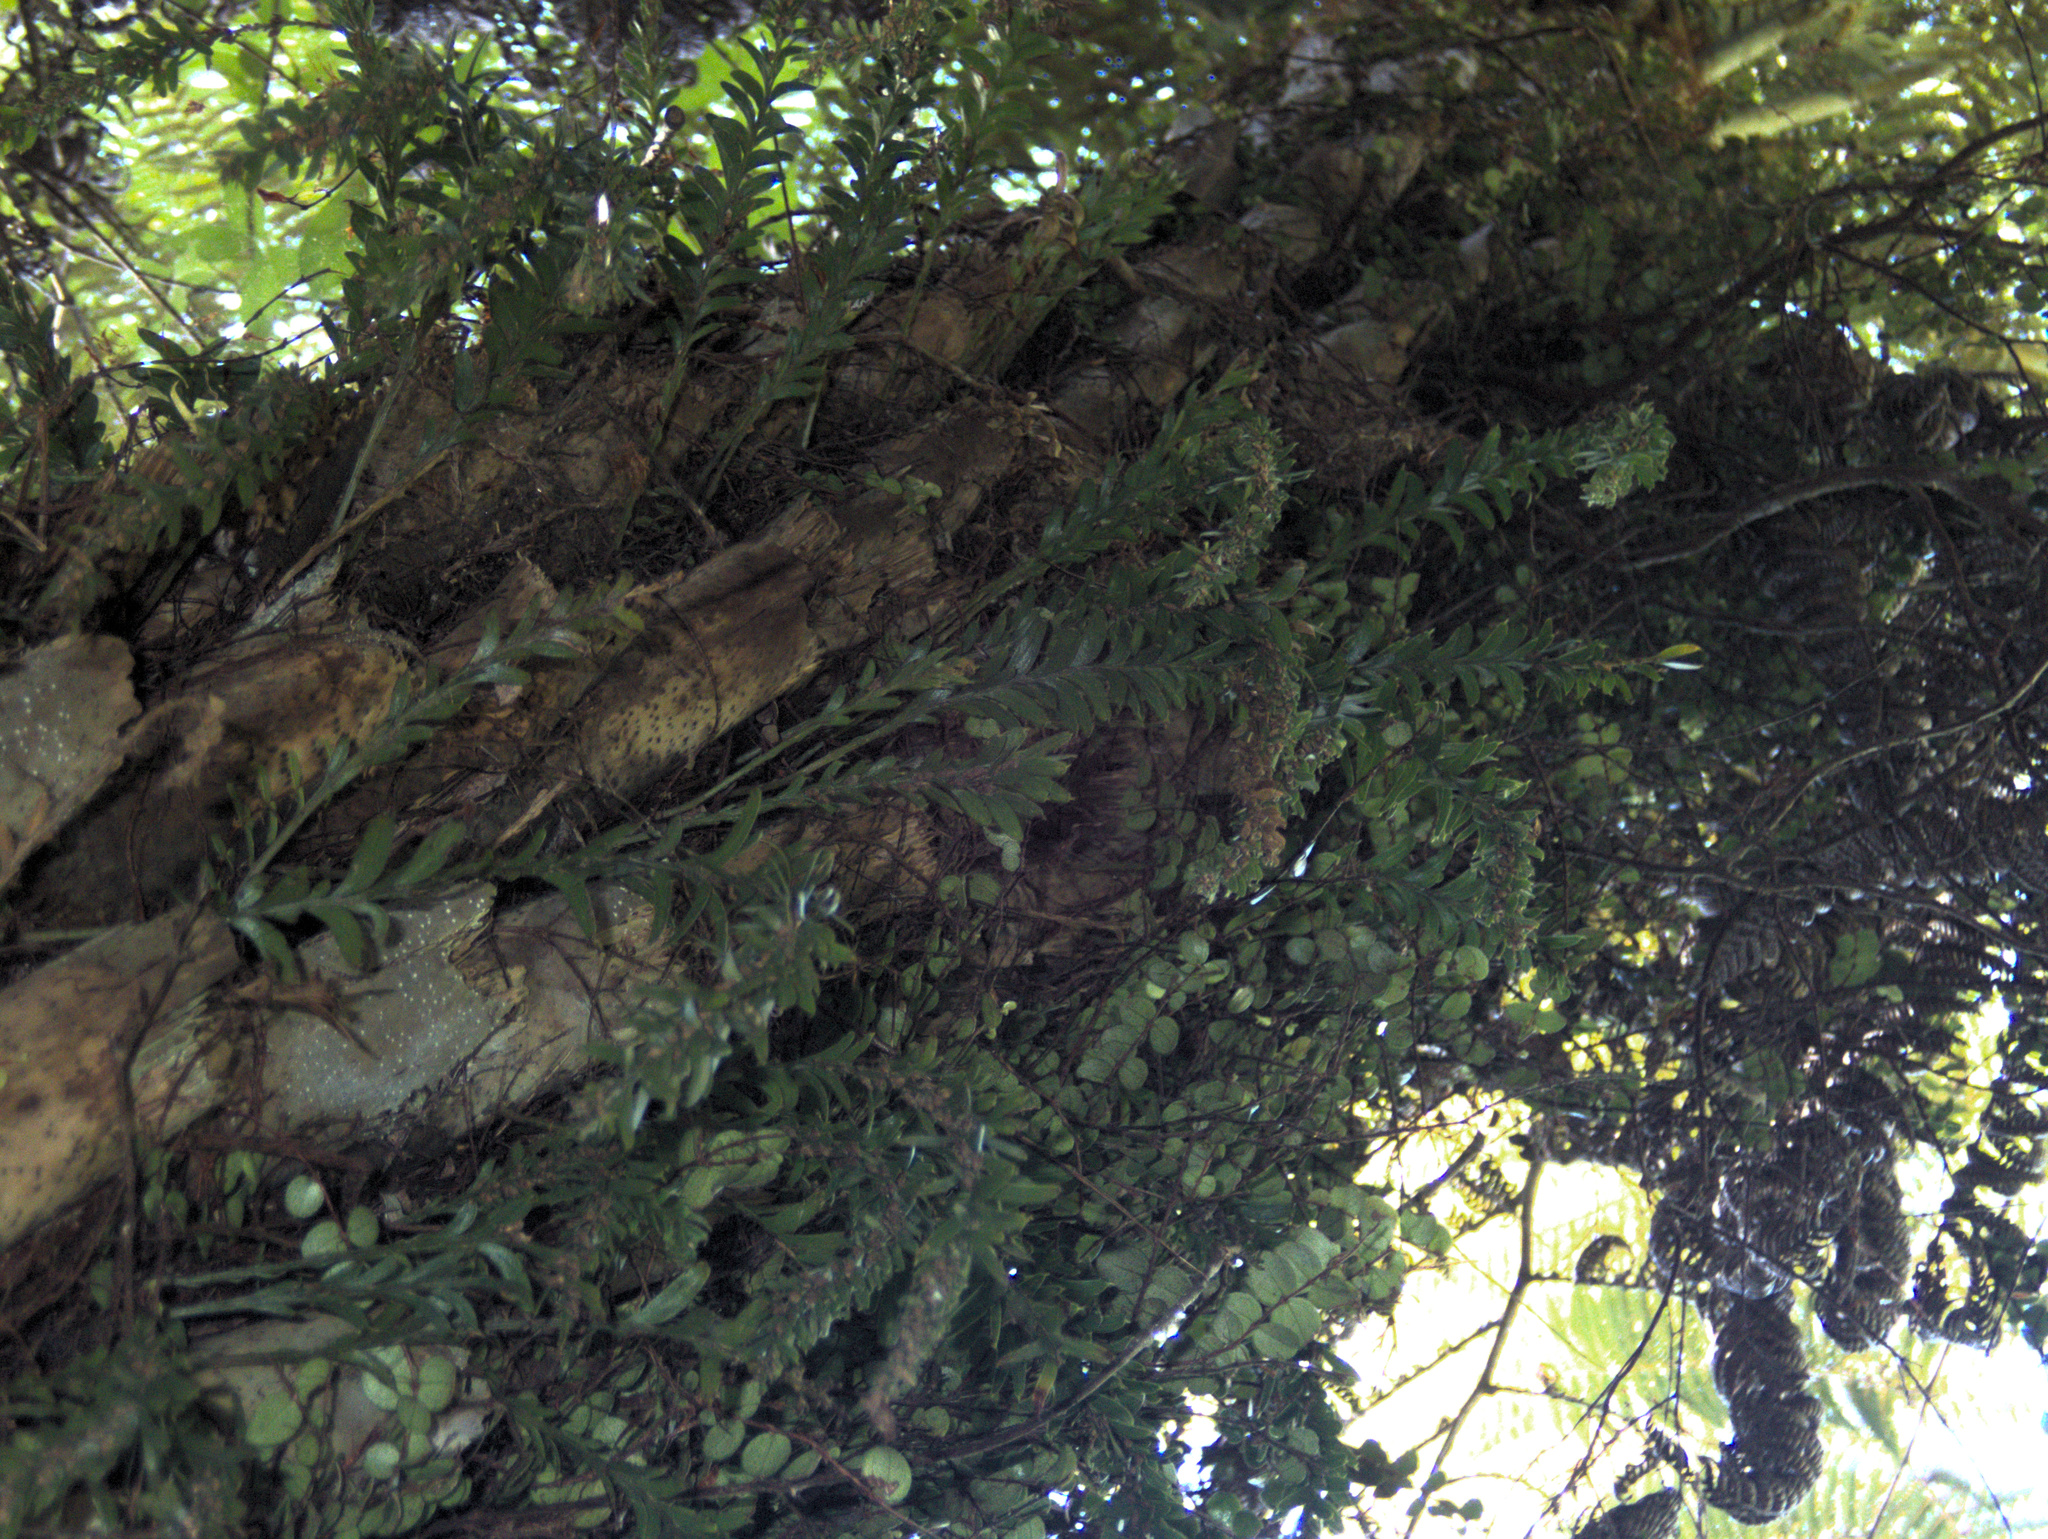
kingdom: Plantae
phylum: Tracheophyta
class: Polypodiopsida
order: Psilotales
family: Psilotaceae
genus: Tmesipteris
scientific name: Tmesipteris tannensis
